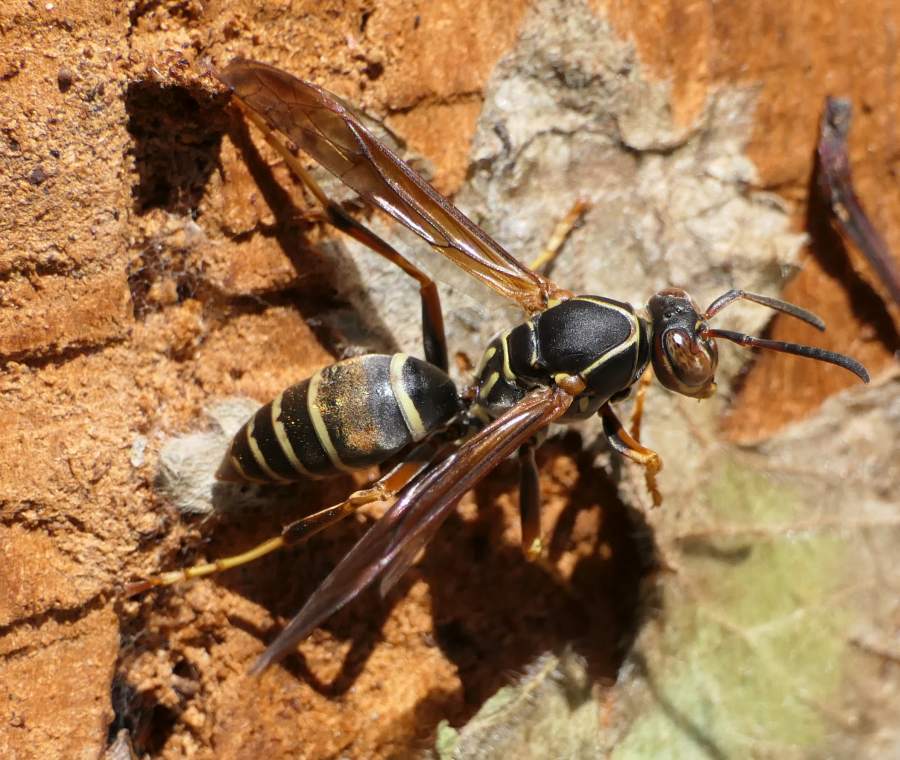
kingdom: Animalia
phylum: Arthropoda
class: Insecta
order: Hymenoptera
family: Eumenidae
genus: Polistes
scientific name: Polistes fuscatus
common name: Dark paper wasp
